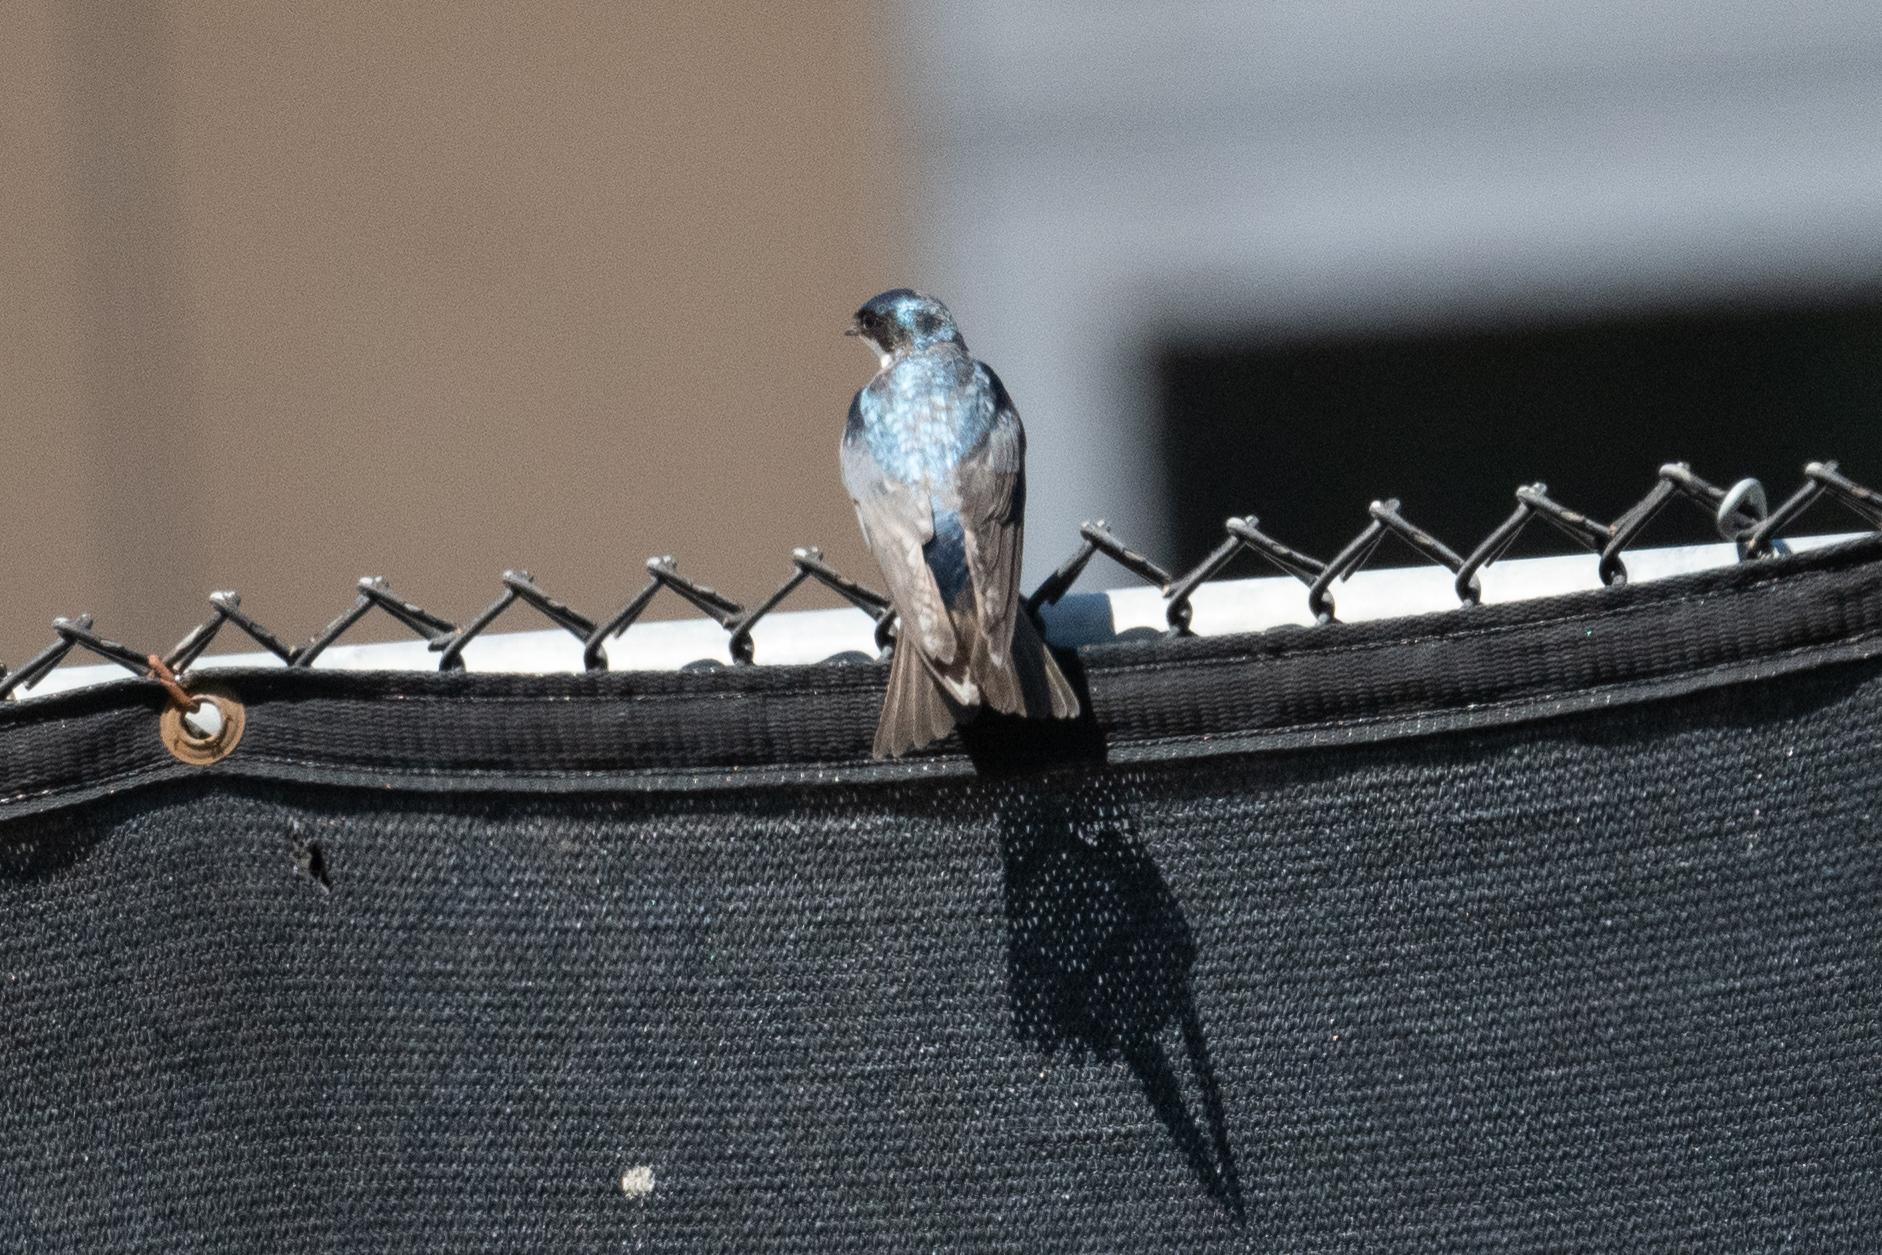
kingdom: Animalia
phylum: Chordata
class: Aves
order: Passeriformes
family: Hirundinidae
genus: Tachycineta
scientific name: Tachycineta bicolor
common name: Tree swallow
